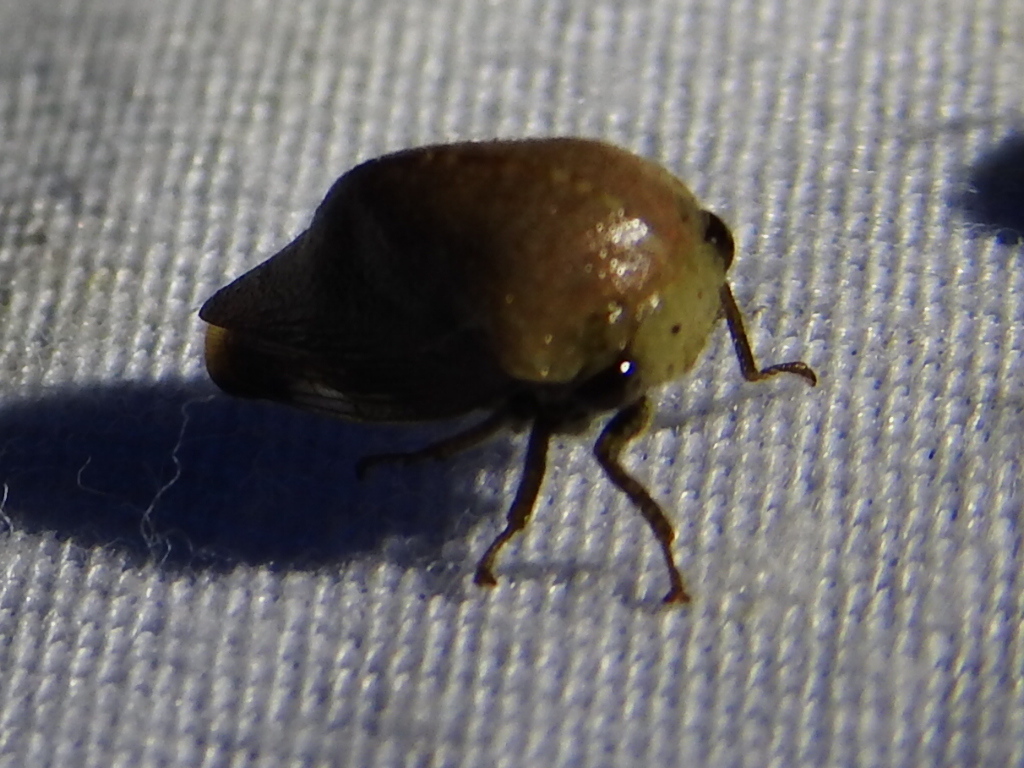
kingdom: Animalia
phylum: Arthropoda
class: Insecta
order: Hemiptera
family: Membracidae
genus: Carynota
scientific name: Carynota mera
